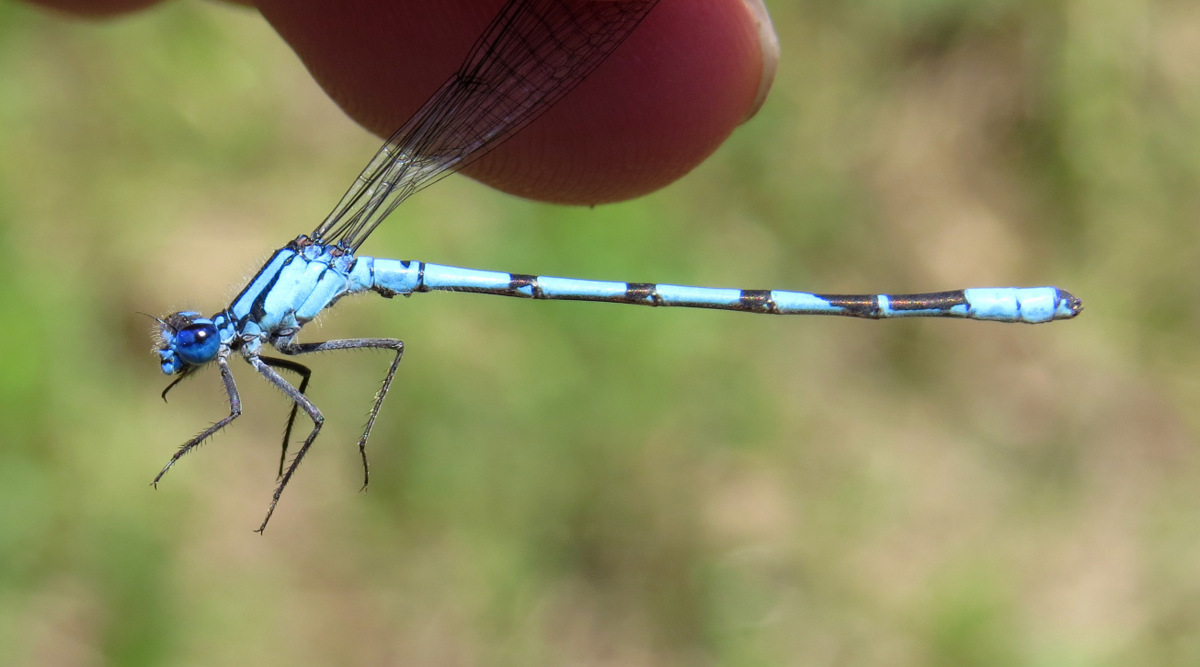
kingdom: Animalia
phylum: Arthropoda
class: Insecta
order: Odonata
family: Coenagrionidae
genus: Enallagma
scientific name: Enallagma boreale
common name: Boreal bluet
